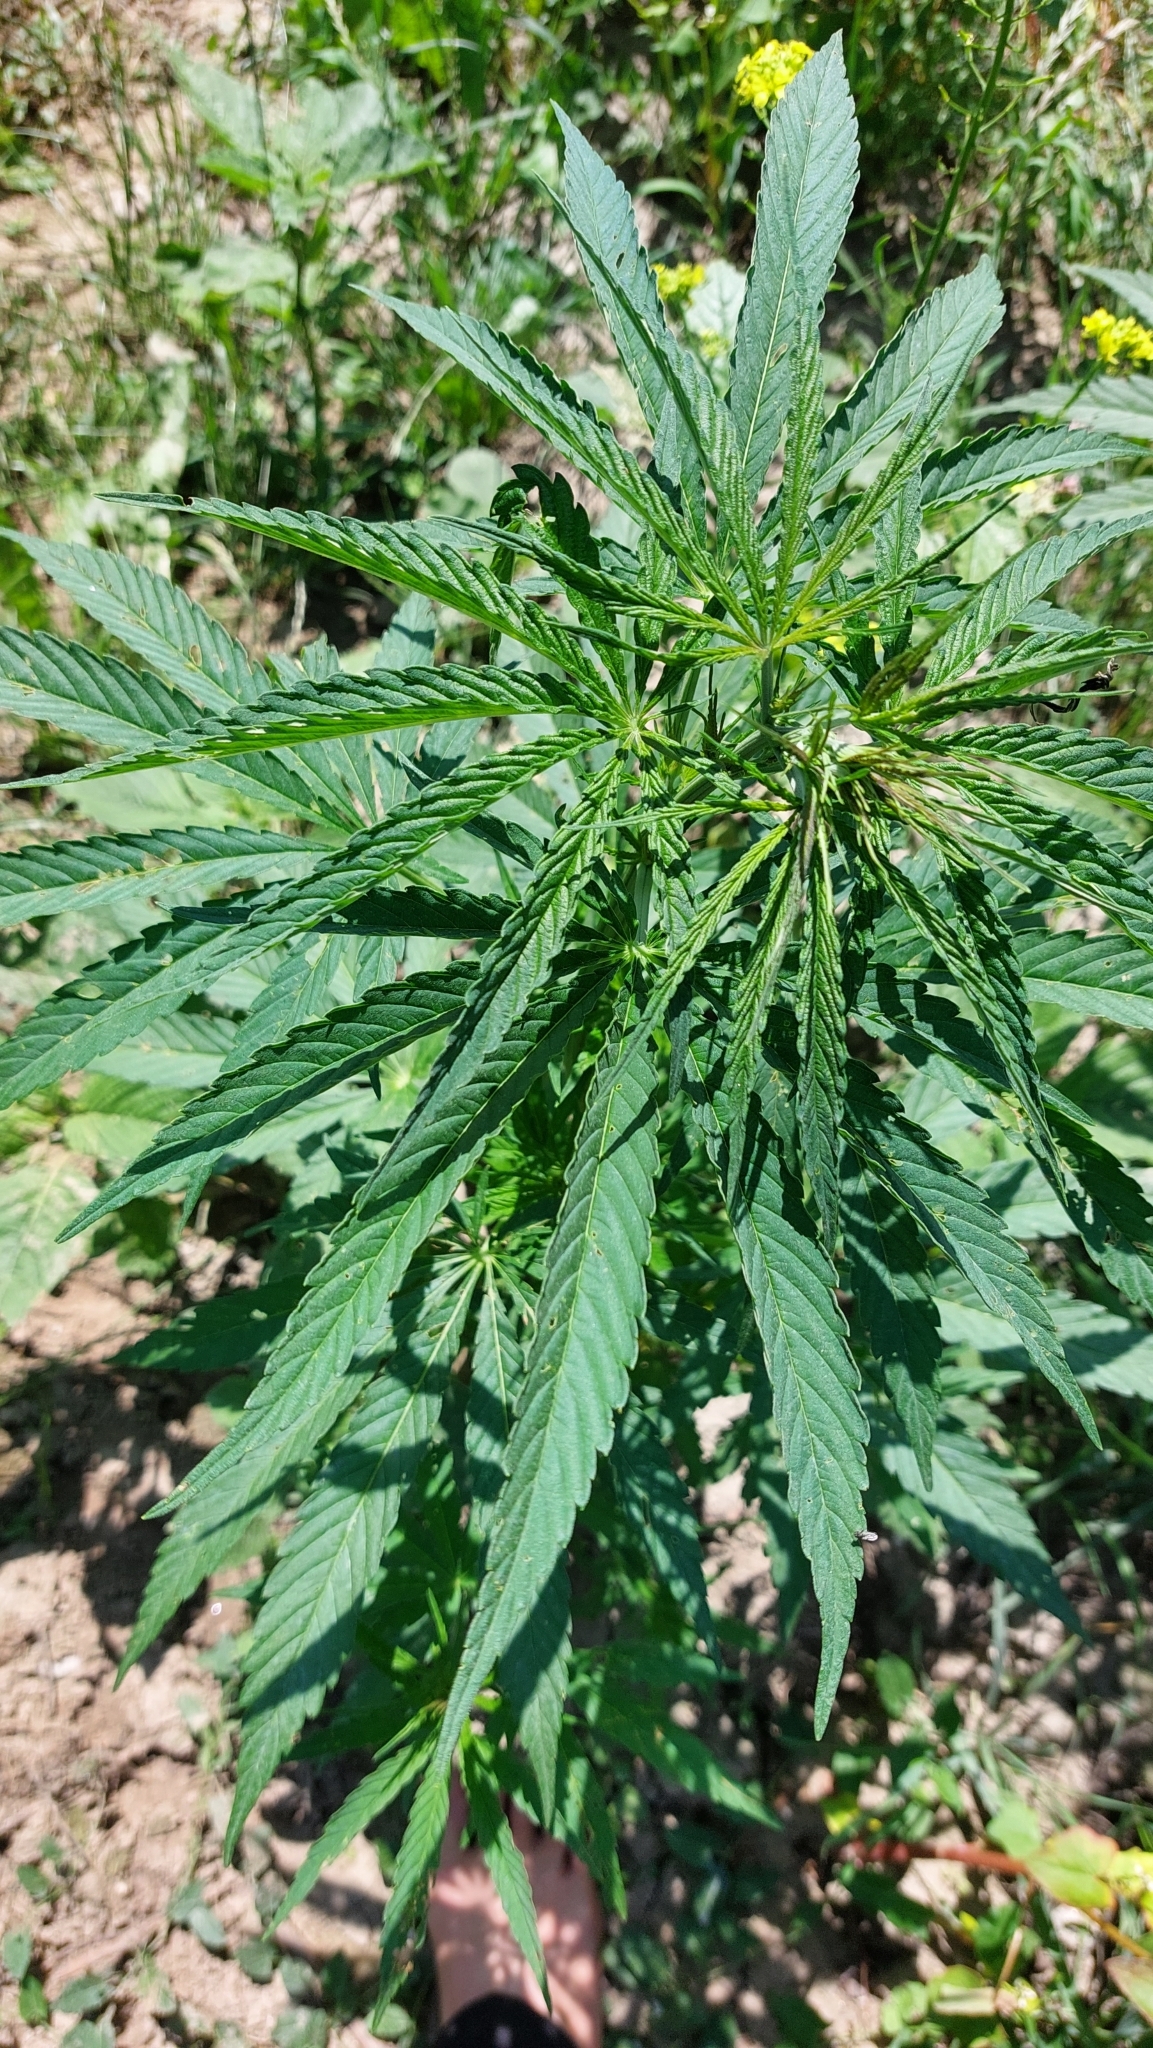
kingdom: Plantae
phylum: Tracheophyta
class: Magnoliopsida
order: Rosales
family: Cannabaceae
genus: Cannabis
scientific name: Cannabis sativa
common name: Hemp
